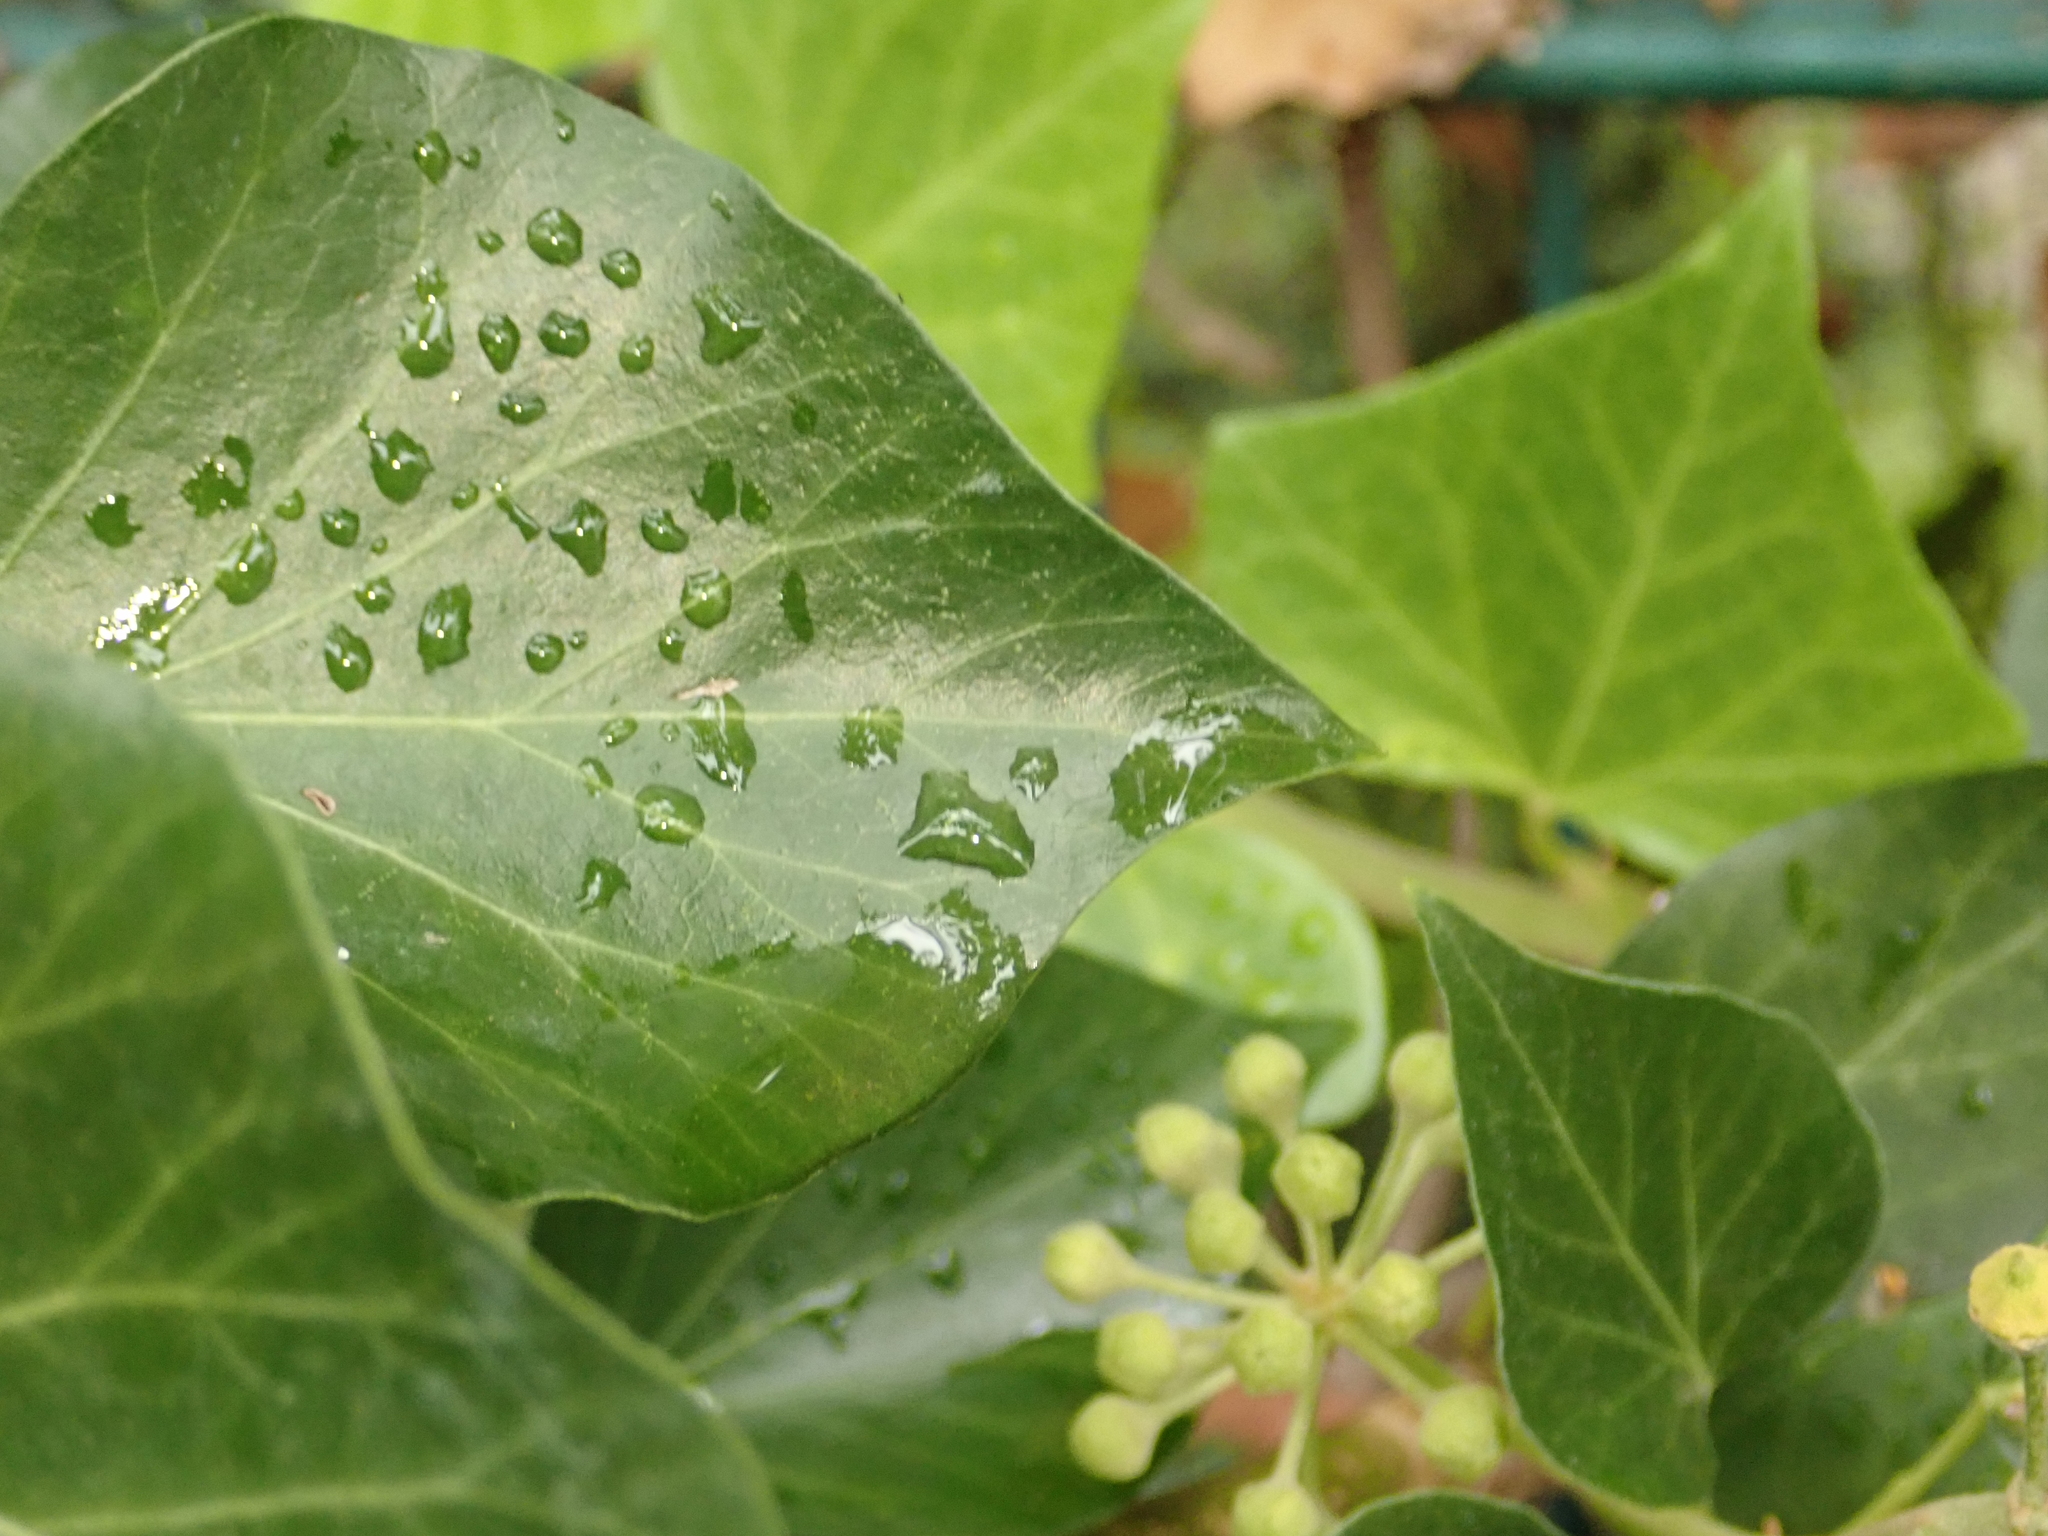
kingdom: Plantae
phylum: Tracheophyta
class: Magnoliopsida
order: Apiales
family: Araliaceae
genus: Hedera
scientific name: Hedera helix
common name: Ivy
